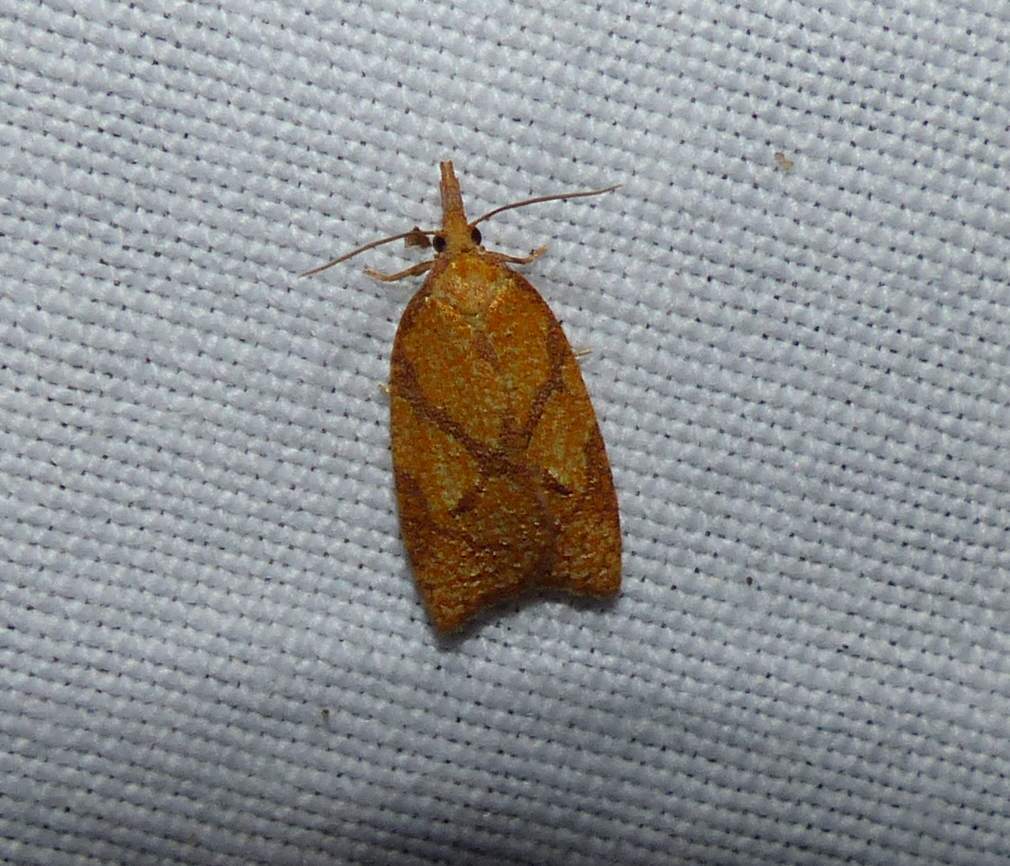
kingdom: Animalia
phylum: Arthropoda
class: Insecta
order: Lepidoptera
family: Tortricidae
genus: Cenopis
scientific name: Cenopis reticulatana
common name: Reticulated fruitworm moth
